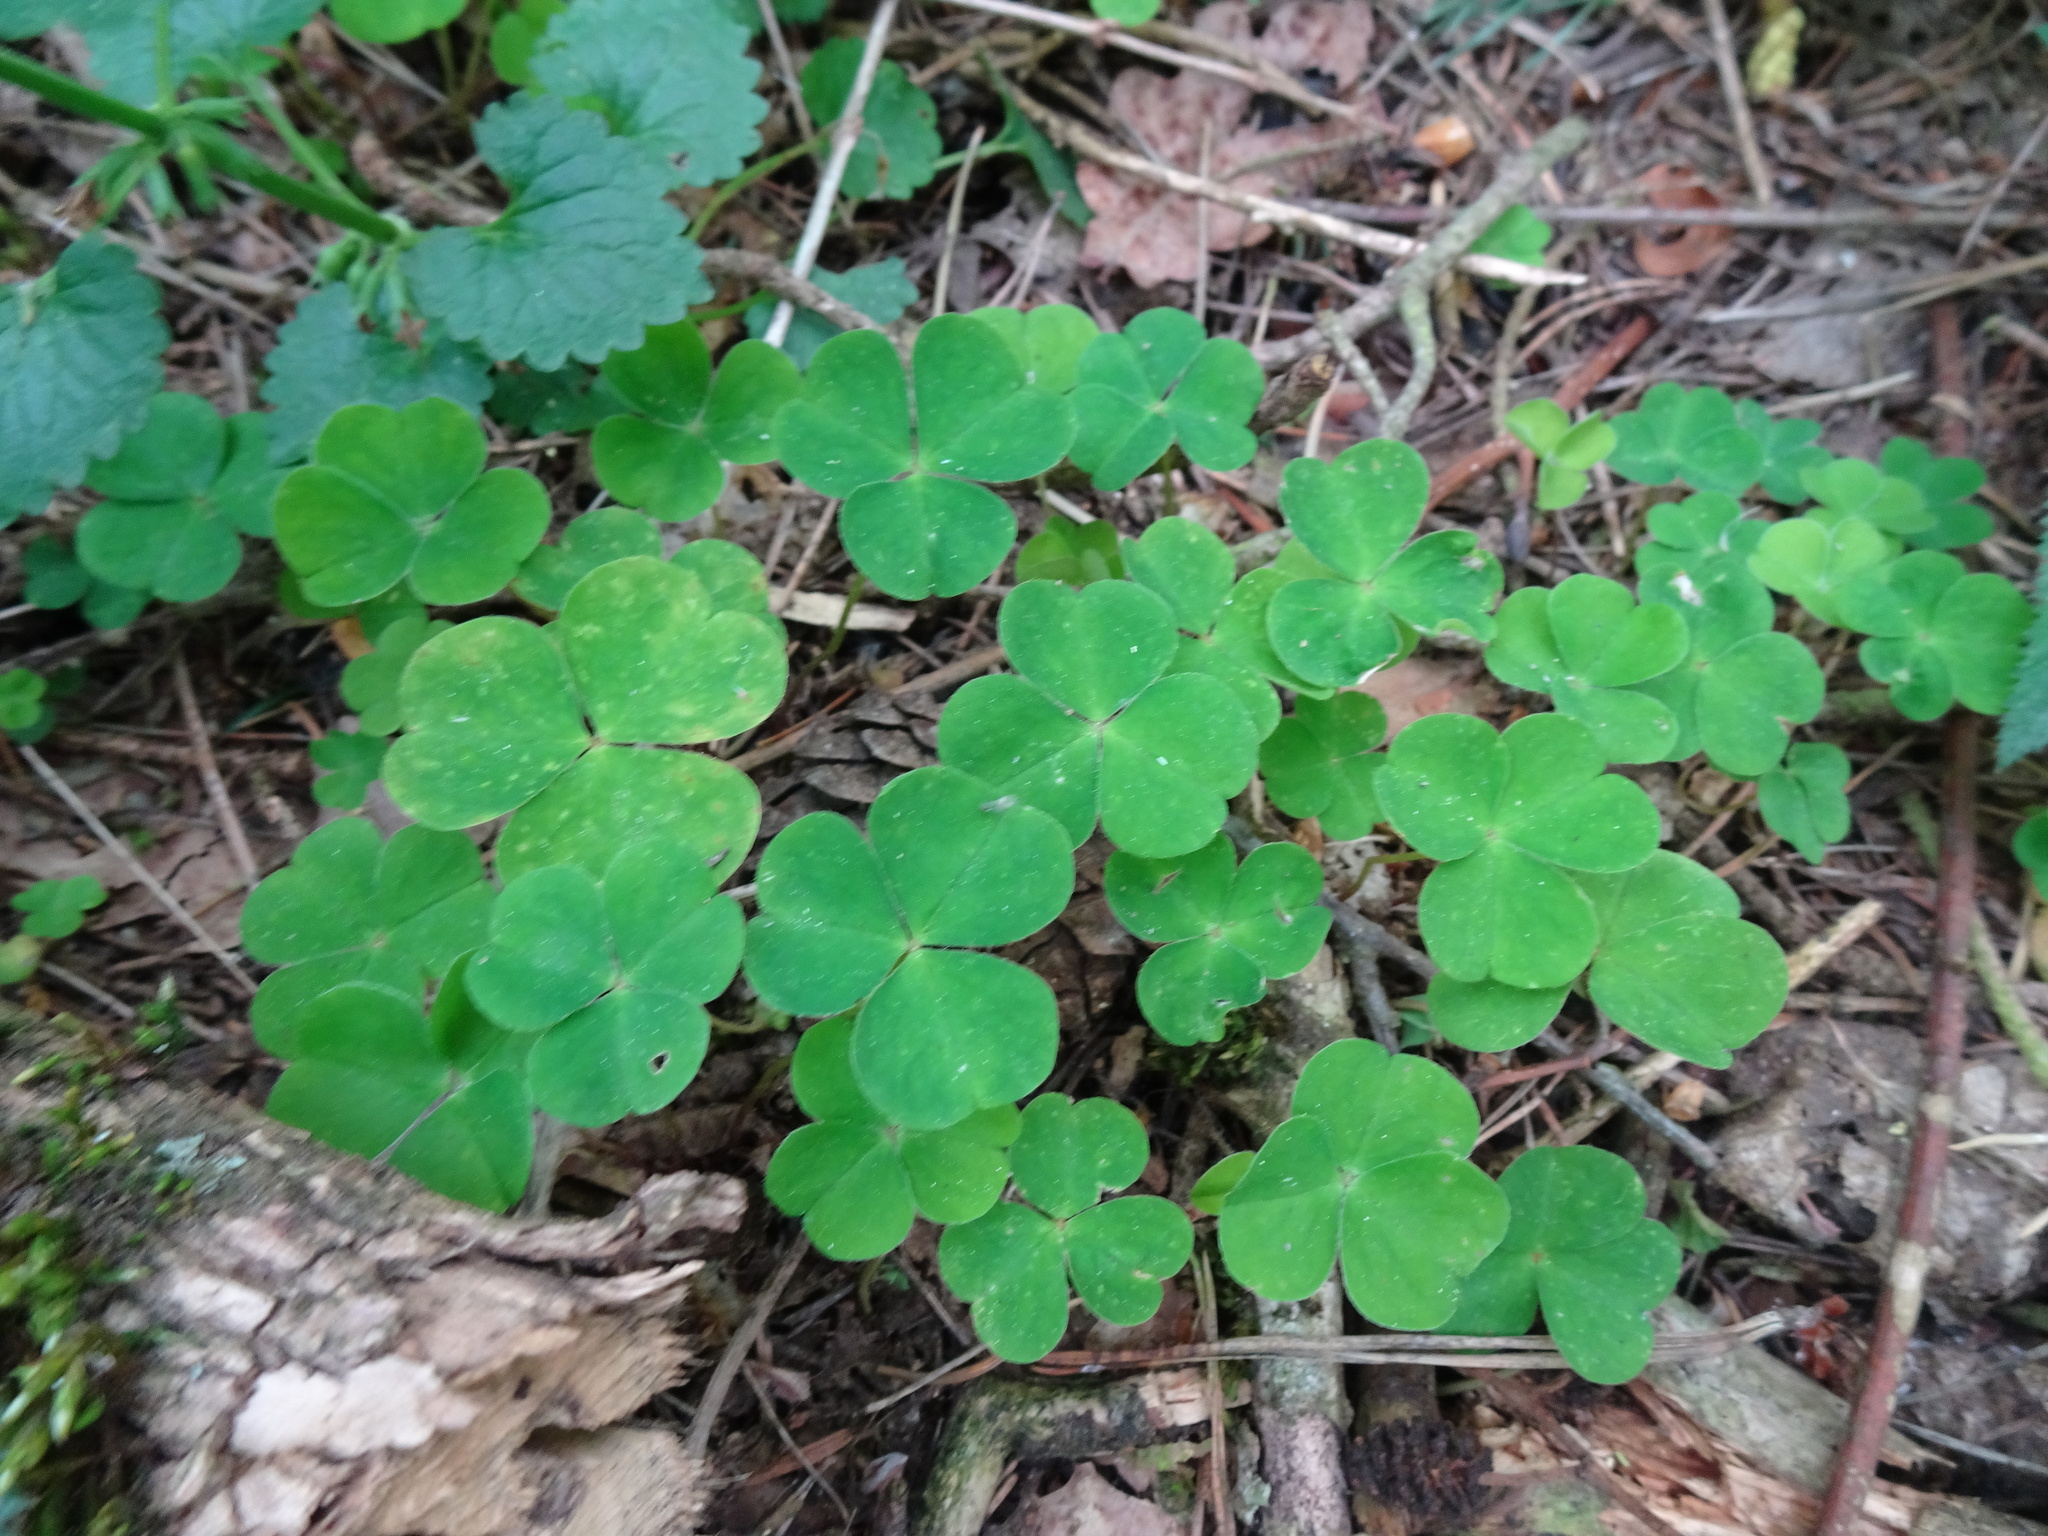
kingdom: Plantae
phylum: Tracheophyta
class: Magnoliopsida
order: Oxalidales
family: Oxalidaceae
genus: Oxalis
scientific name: Oxalis acetosella
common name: Wood-sorrel
